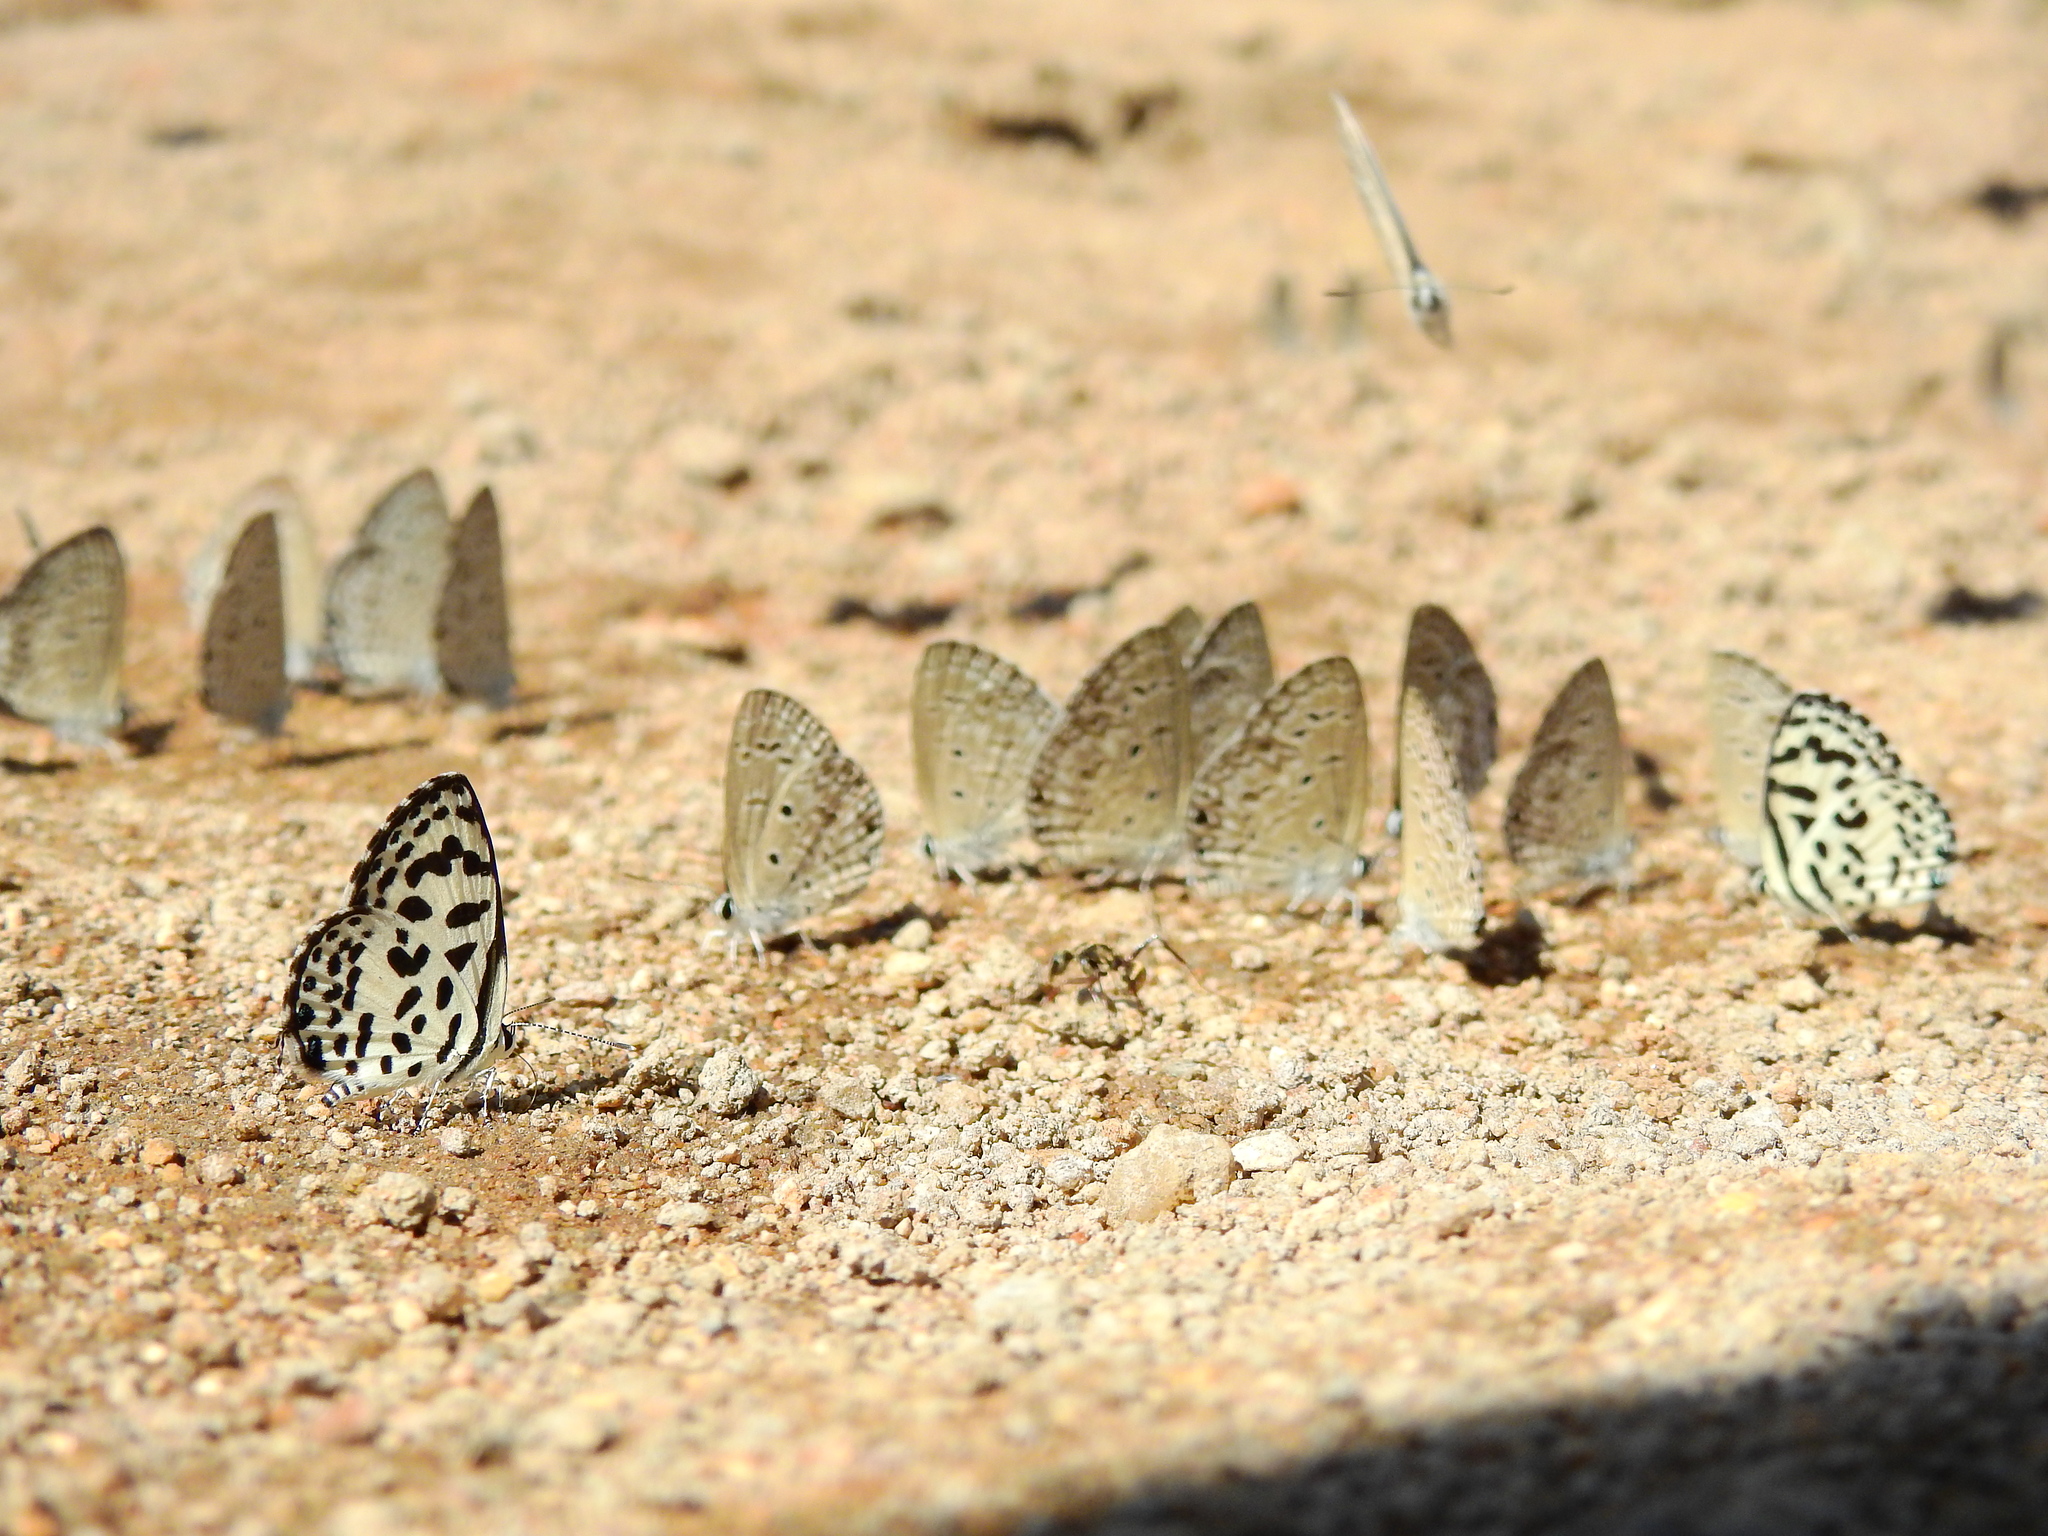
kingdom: Animalia
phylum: Arthropoda
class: Insecta
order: Lepidoptera
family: Lycaenidae
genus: Castalius
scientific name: Castalius rosimon
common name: Common pierrot
